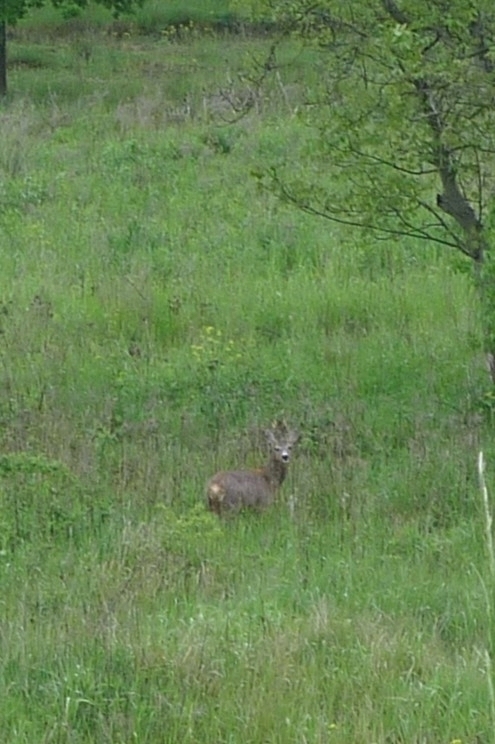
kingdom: Animalia
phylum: Chordata
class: Mammalia
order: Artiodactyla
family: Cervidae
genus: Capreolus
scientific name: Capreolus capreolus
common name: Western roe deer
